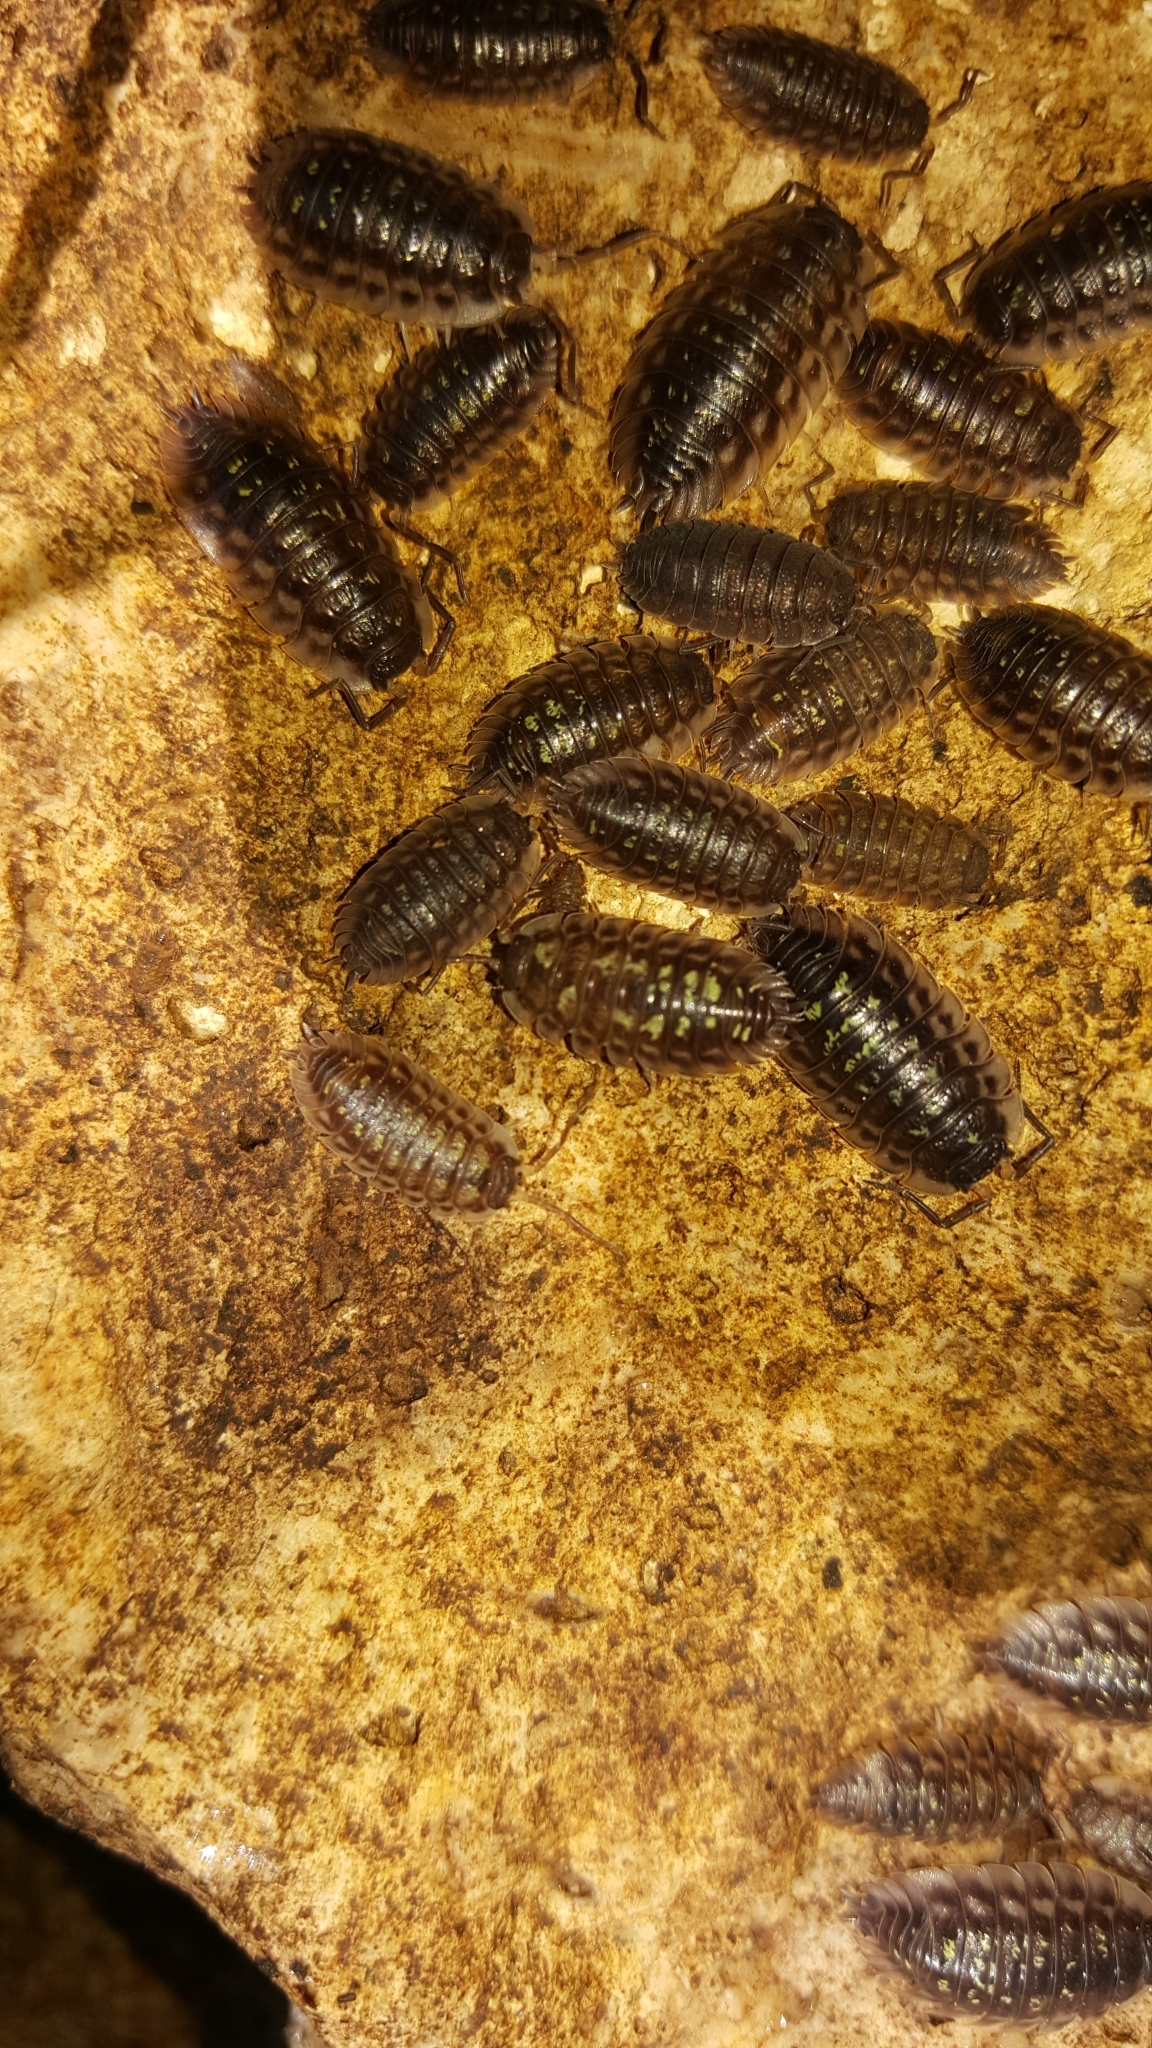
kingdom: Animalia
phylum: Arthropoda
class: Malacostraca
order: Isopoda
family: Oniscidae
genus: Oniscus
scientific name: Oniscus asellus
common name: Common shiny woodlouse
